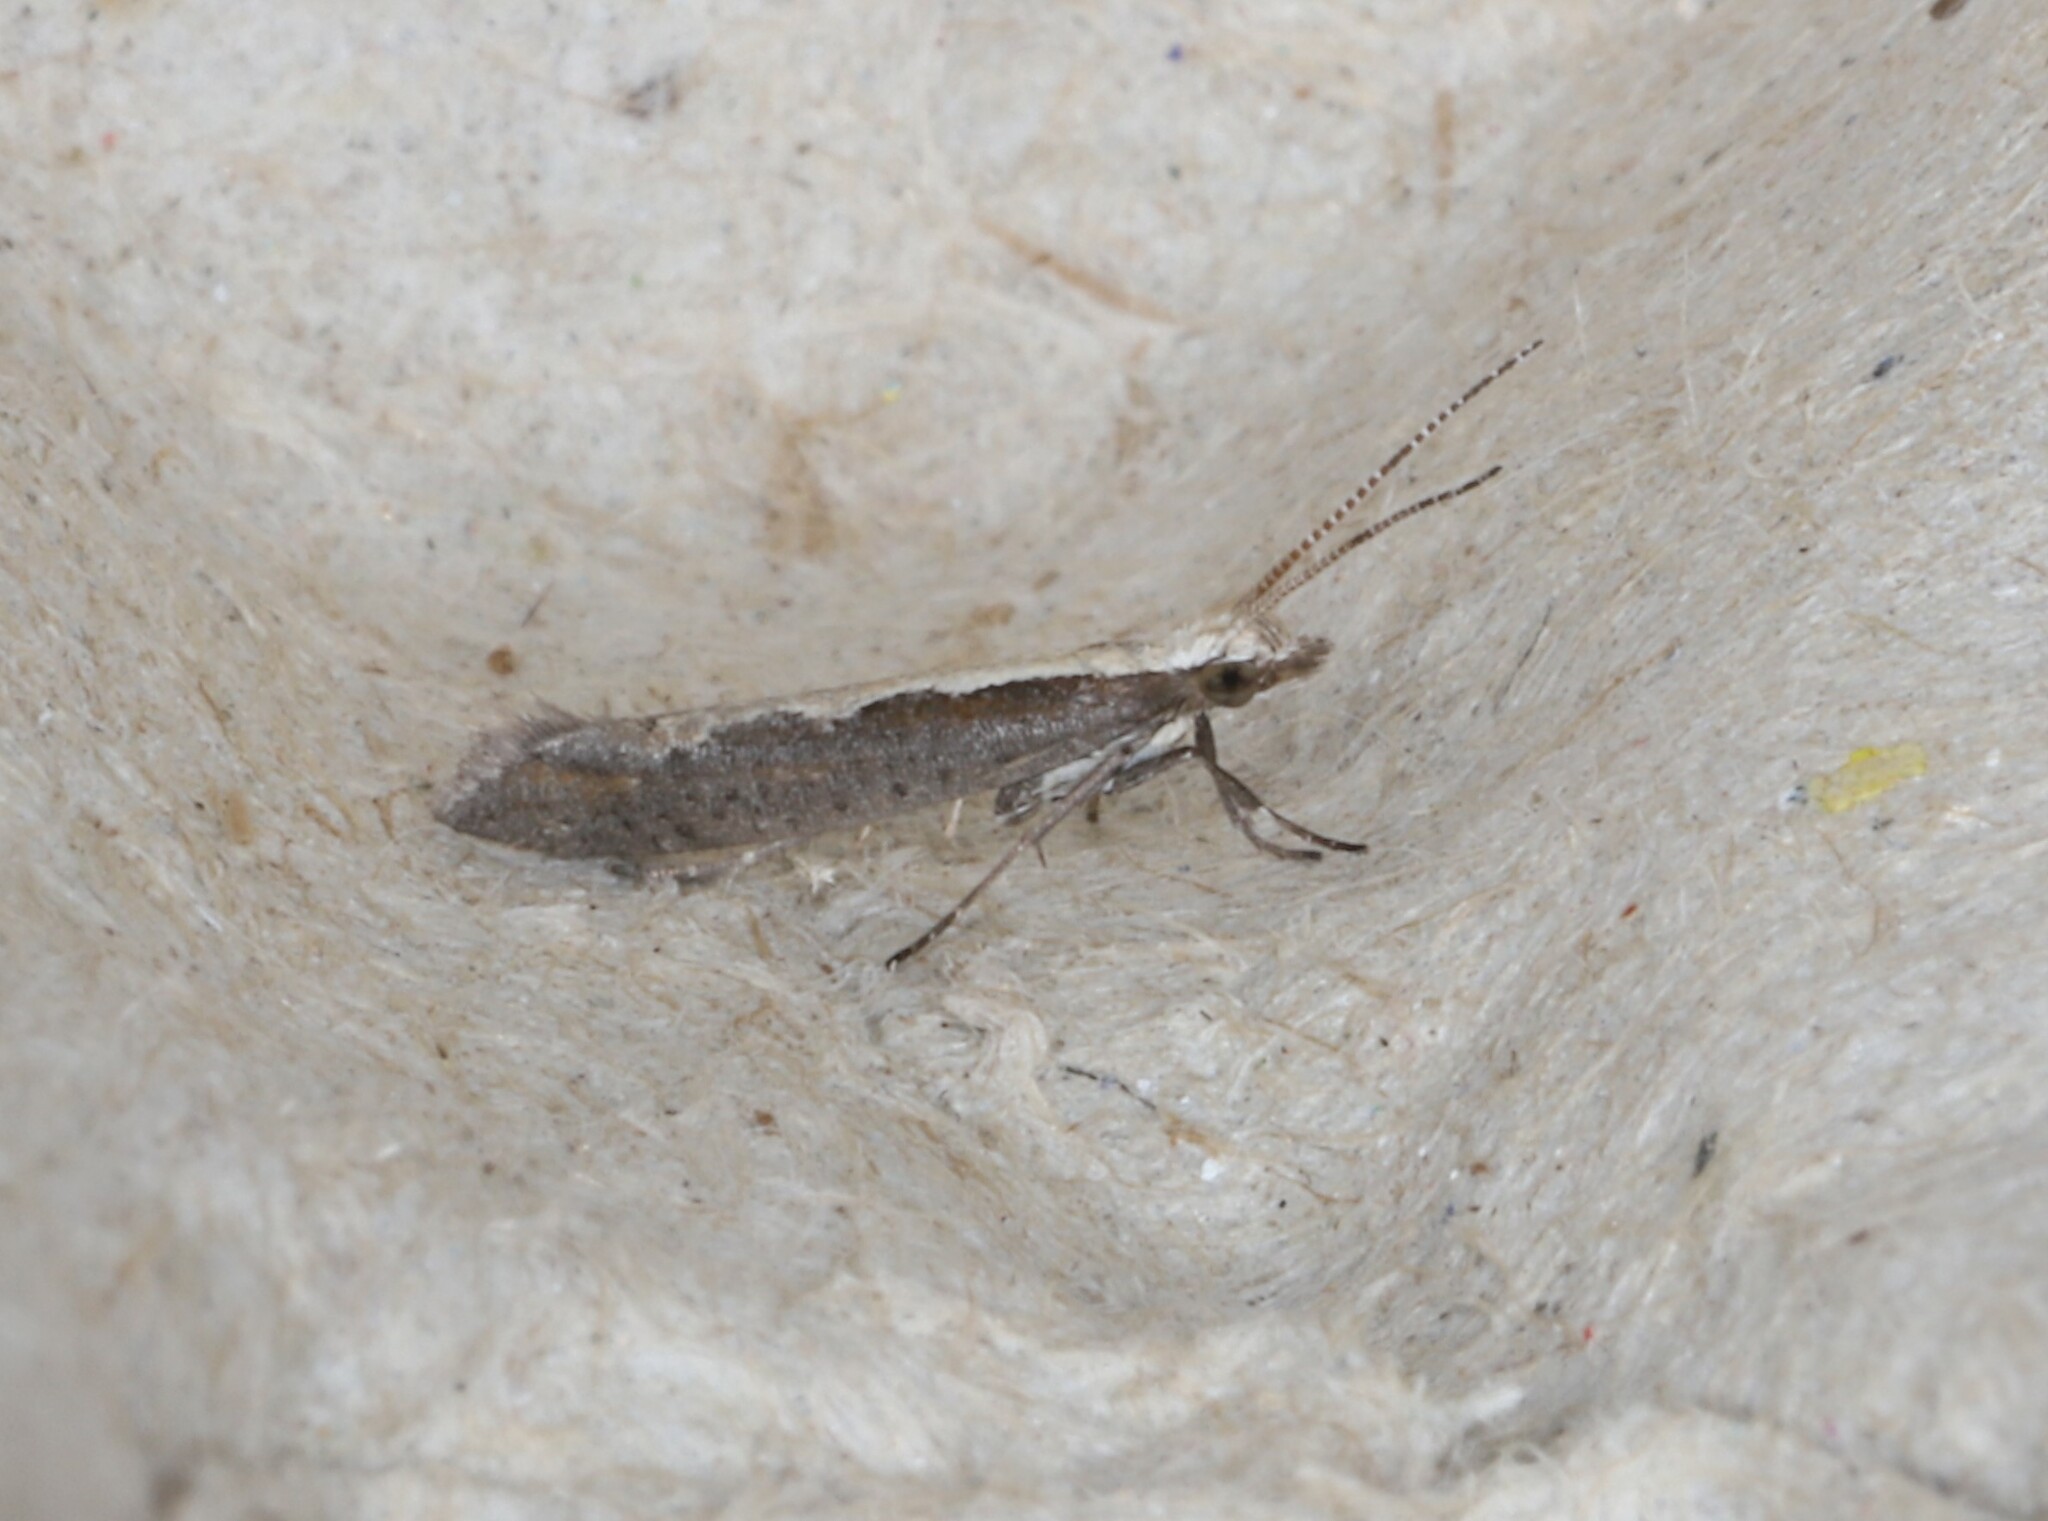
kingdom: Animalia
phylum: Arthropoda
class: Insecta
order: Lepidoptera
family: Plutellidae
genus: Plutella
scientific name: Plutella xylostella
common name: Diamond-back moth
